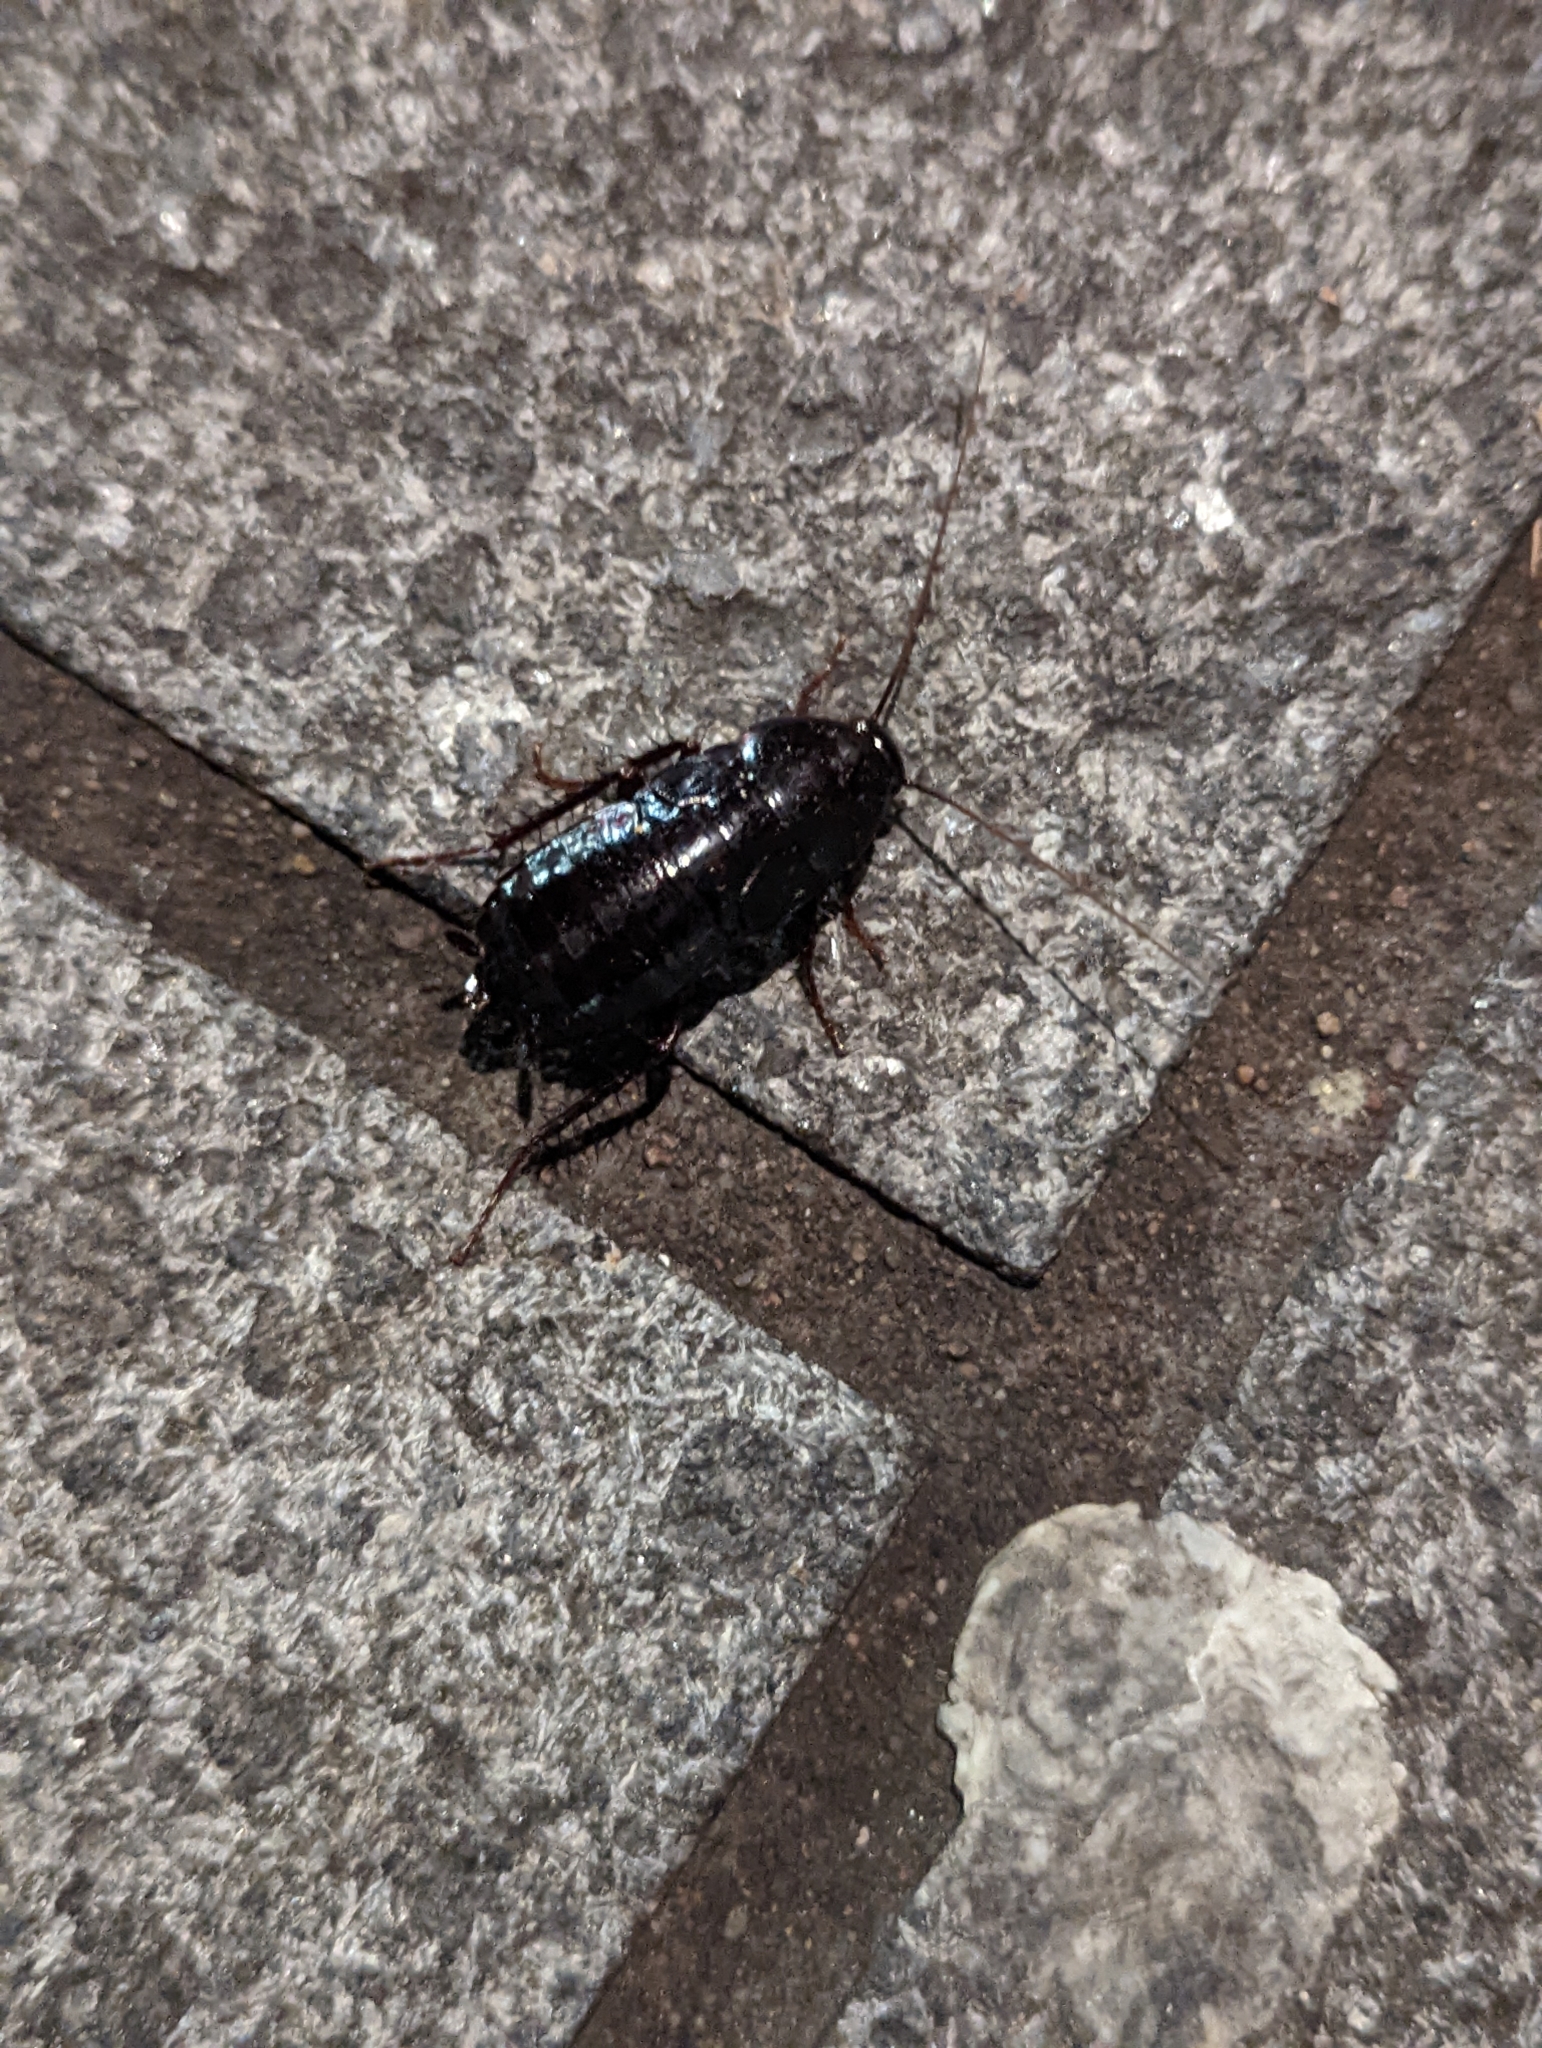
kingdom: Animalia
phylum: Arthropoda
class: Insecta
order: Blattodea
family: Blattidae
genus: Blatta
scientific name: Blatta orientalis
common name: Oriental cockroach
